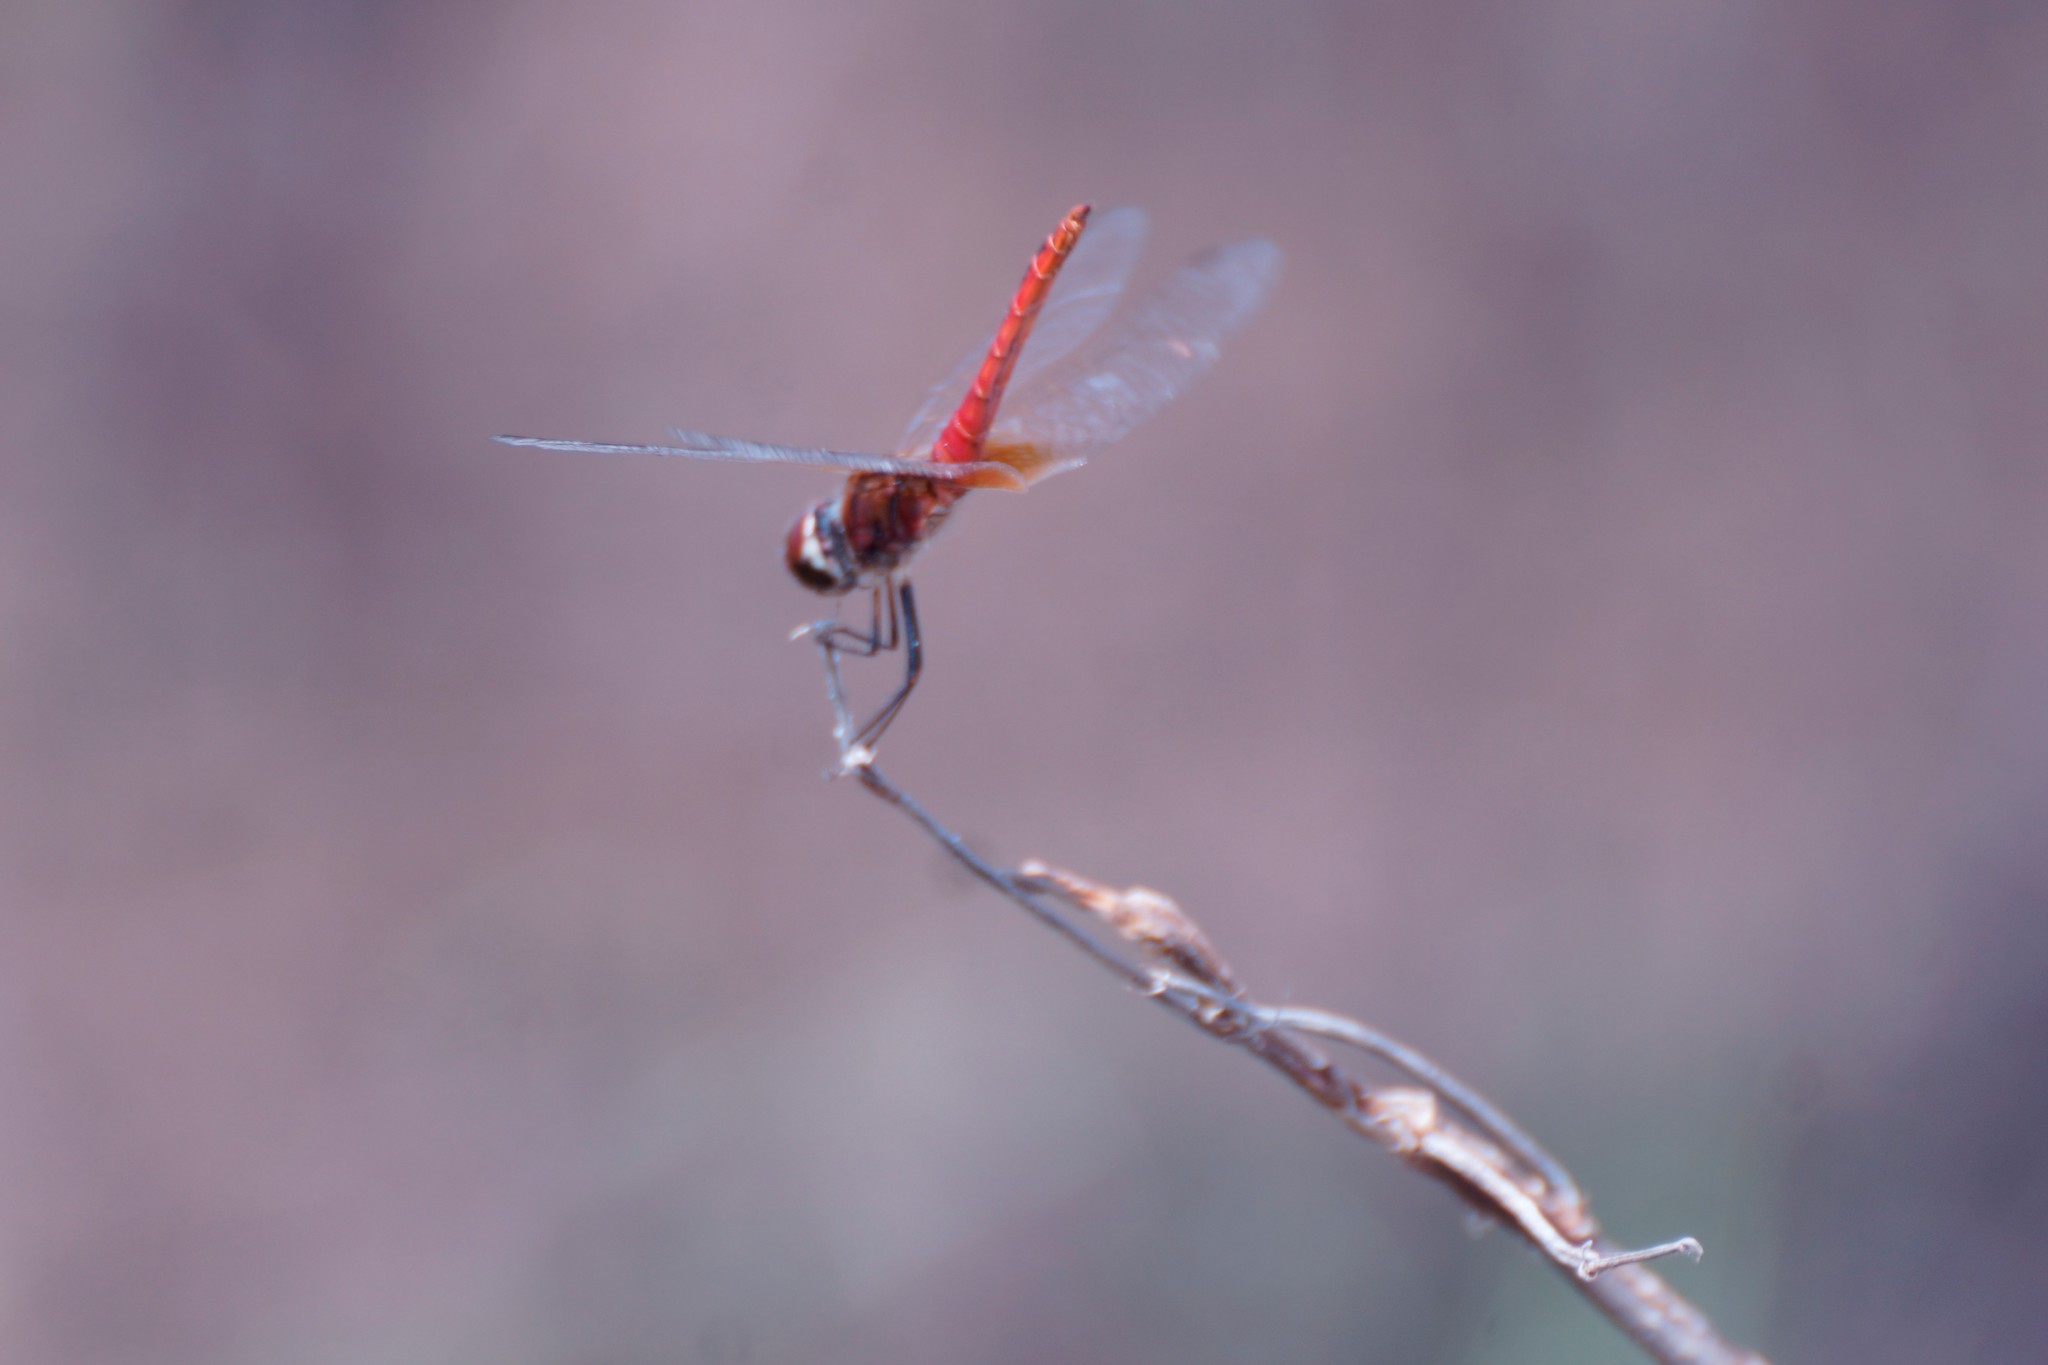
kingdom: Animalia
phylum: Arthropoda
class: Insecta
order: Odonata
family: Libellulidae
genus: Macrodiplax
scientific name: Macrodiplax cora
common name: Coastal glider
